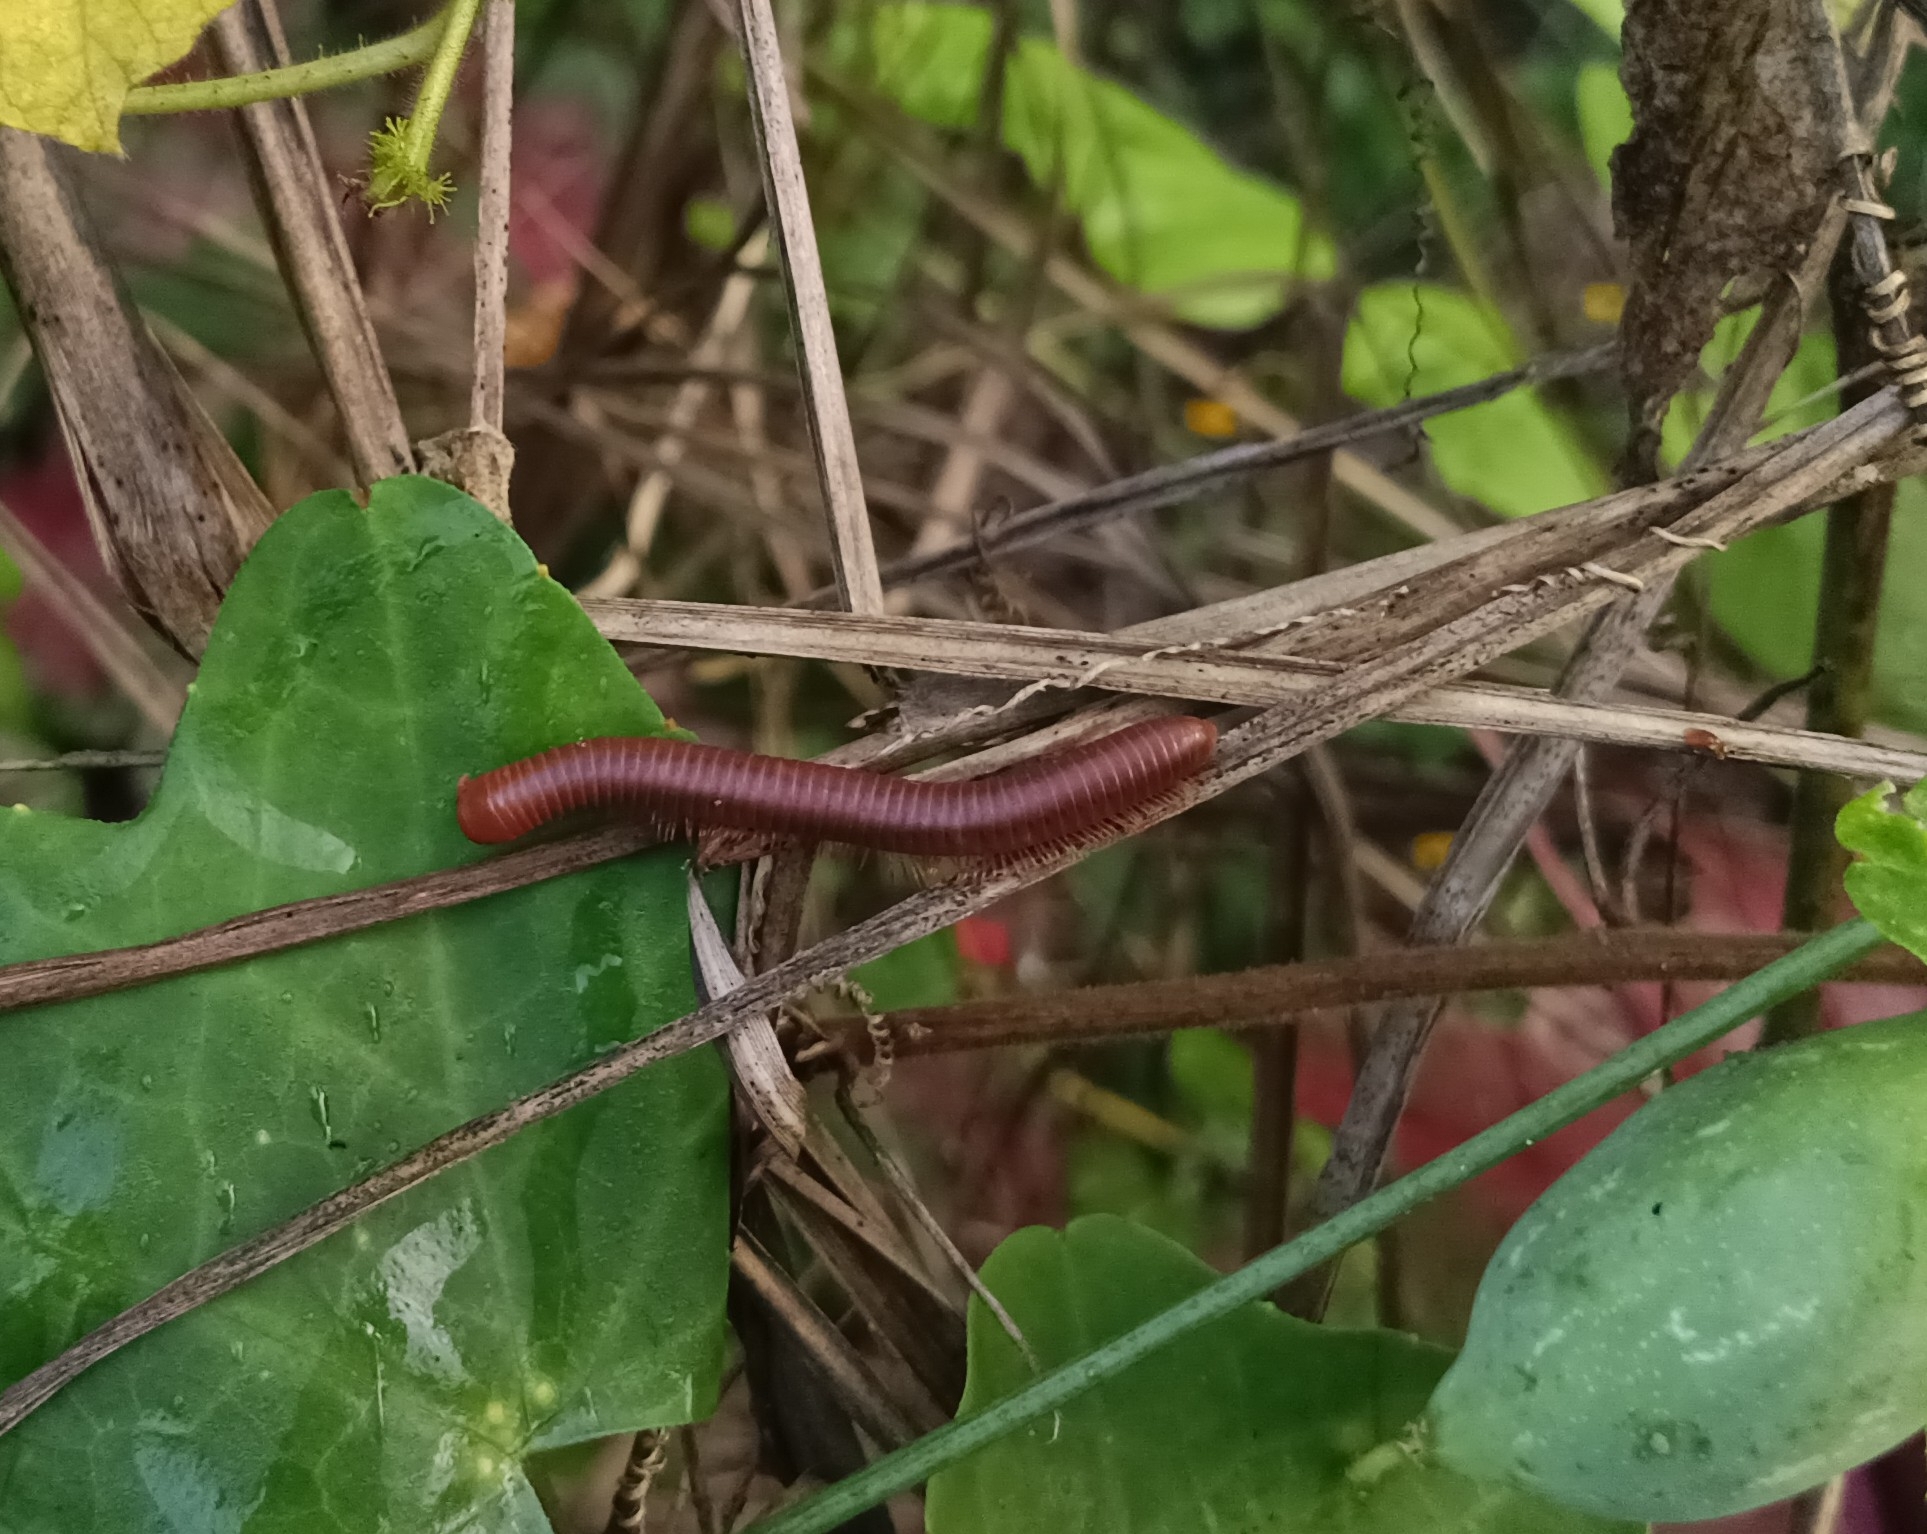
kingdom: Animalia
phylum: Arthropoda
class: Diplopoda
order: Spirobolida
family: Pachybolidae
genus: Trigoniulus
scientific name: Trigoniulus corallinus
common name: Millipede
